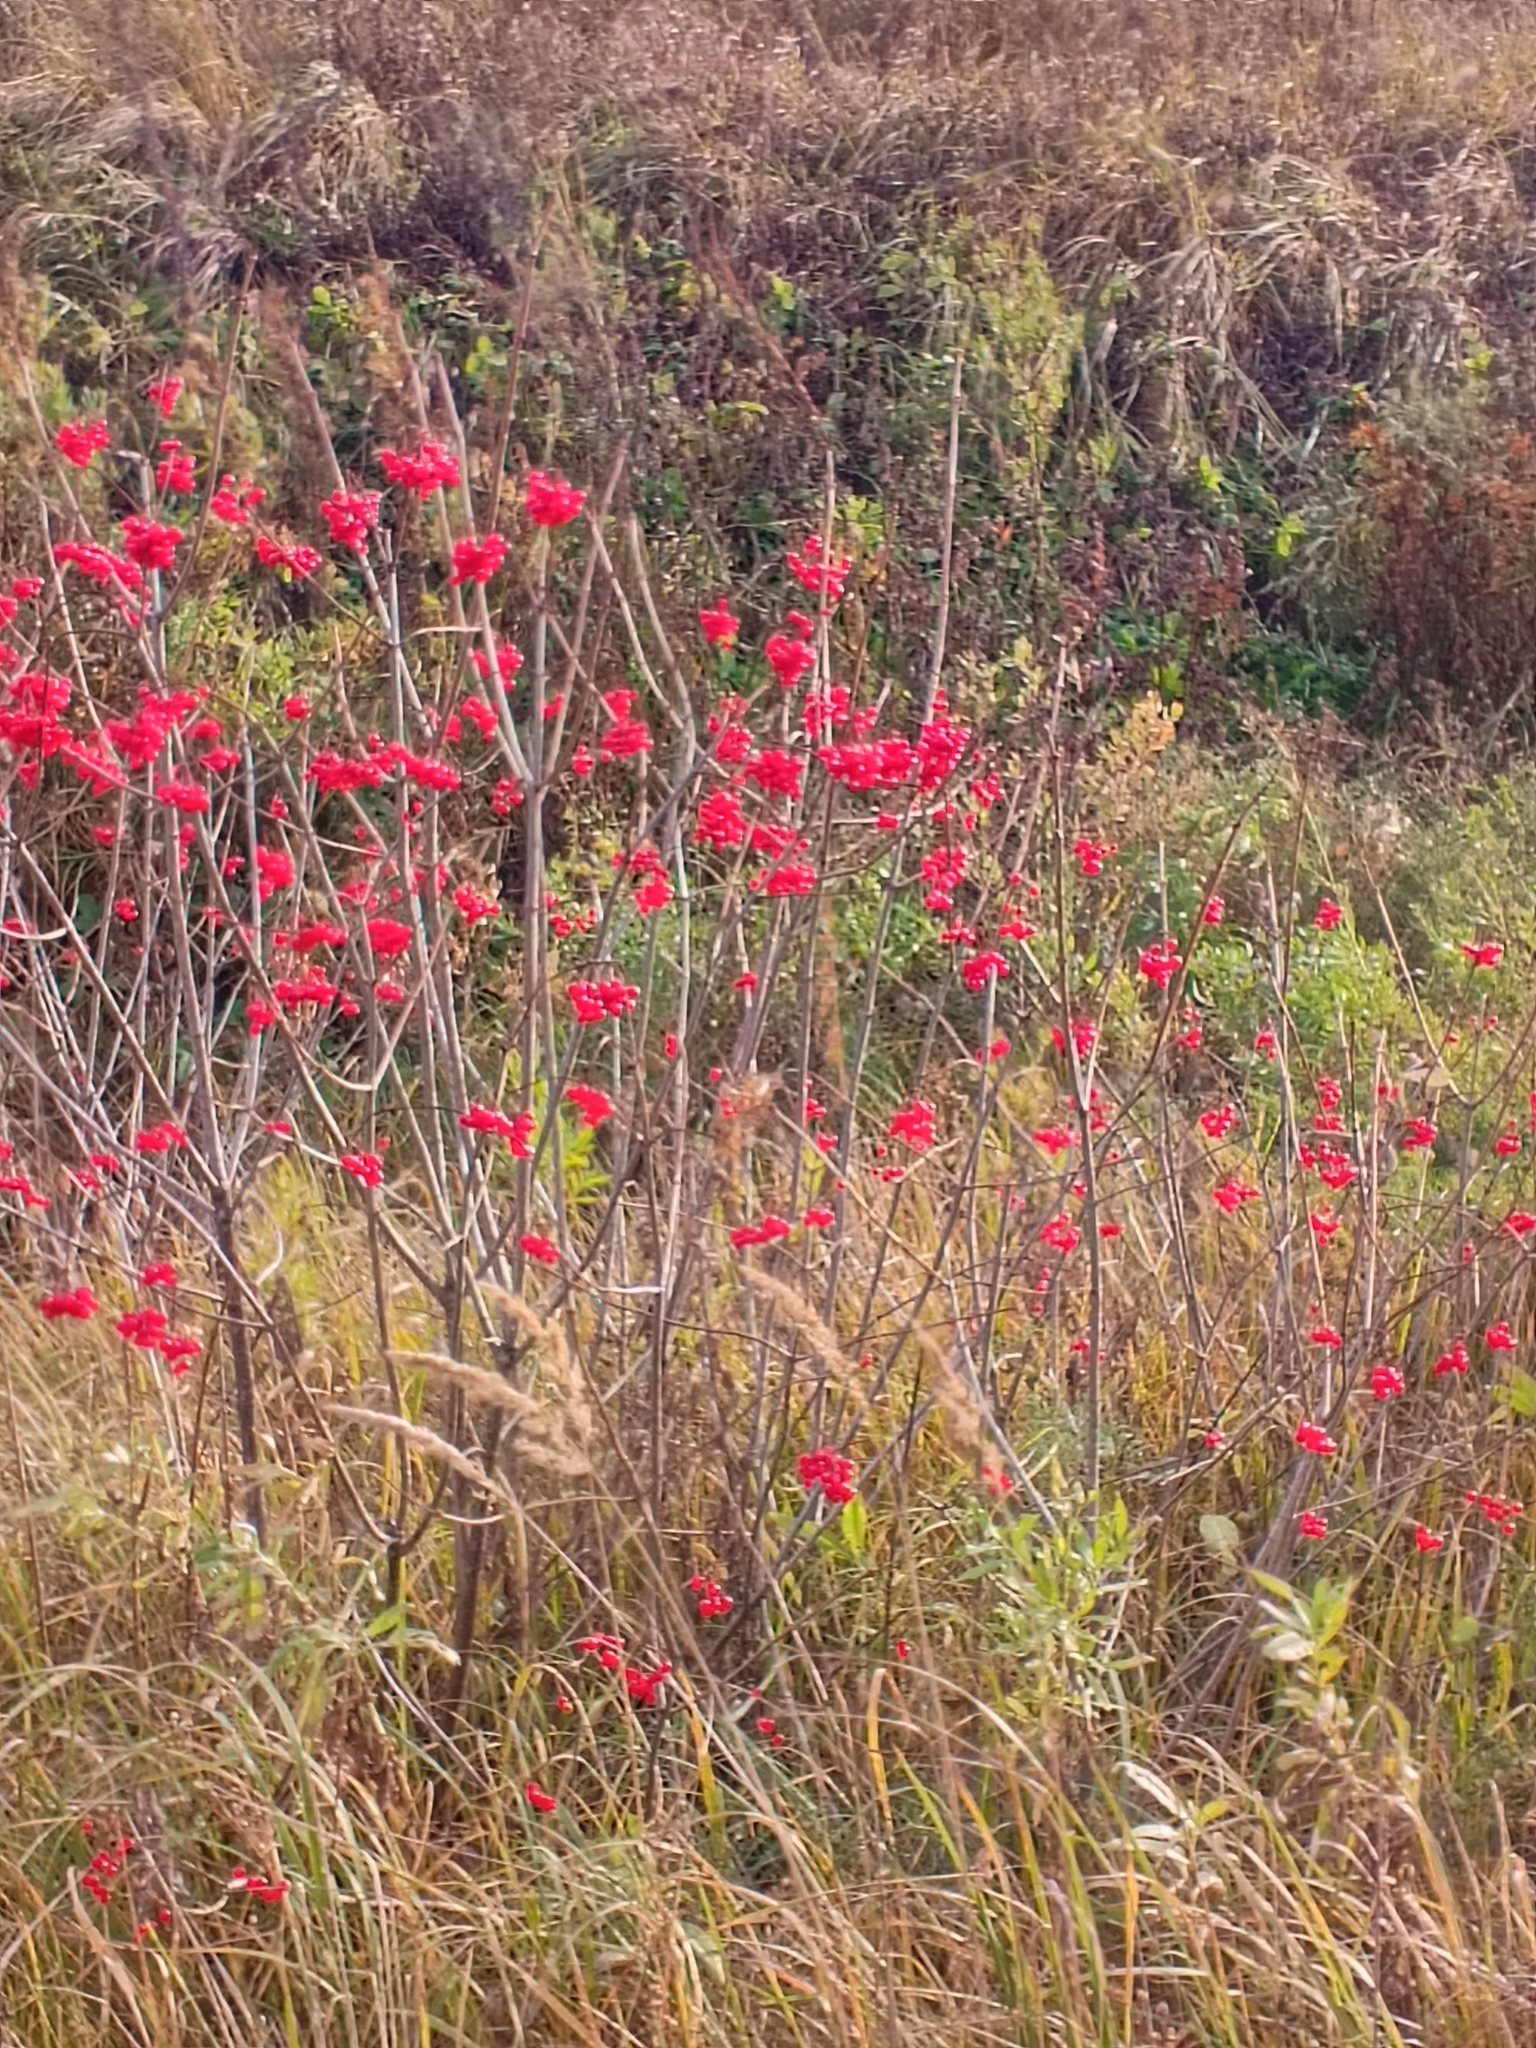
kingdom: Plantae
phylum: Tracheophyta
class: Magnoliopsida
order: Dipsacales
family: Viburnaceae
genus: Viburnum
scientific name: Viburnum opulus
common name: Guelder-rose
